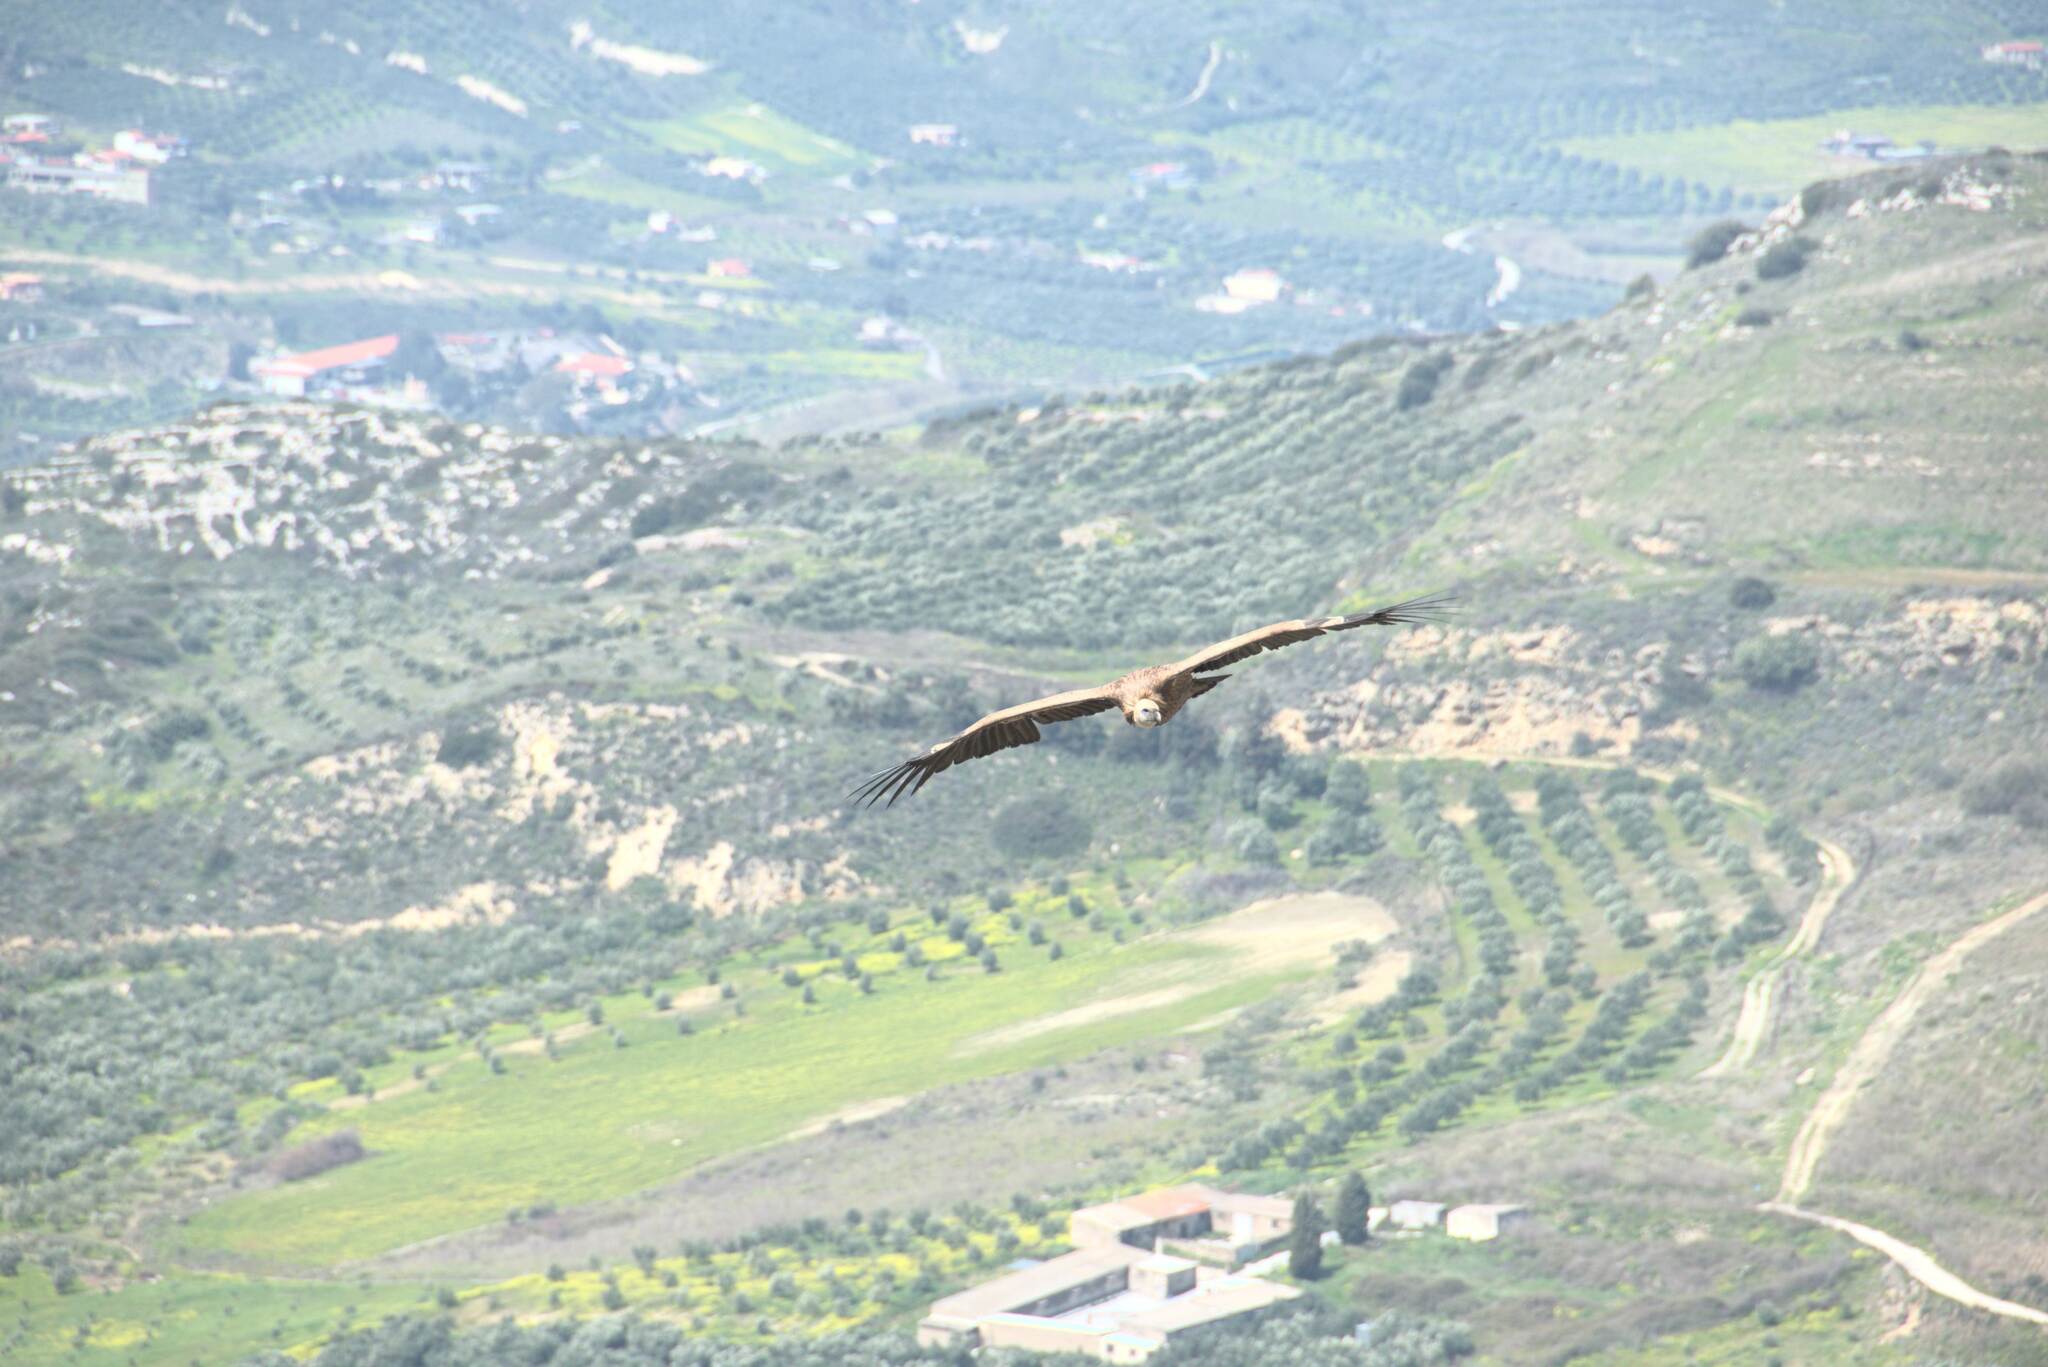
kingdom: Animalia
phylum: Chordata
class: Aves
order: Accipitriformes
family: Accipitridae
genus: Gyps
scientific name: Gyps fulvus
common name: Griffon vulture
